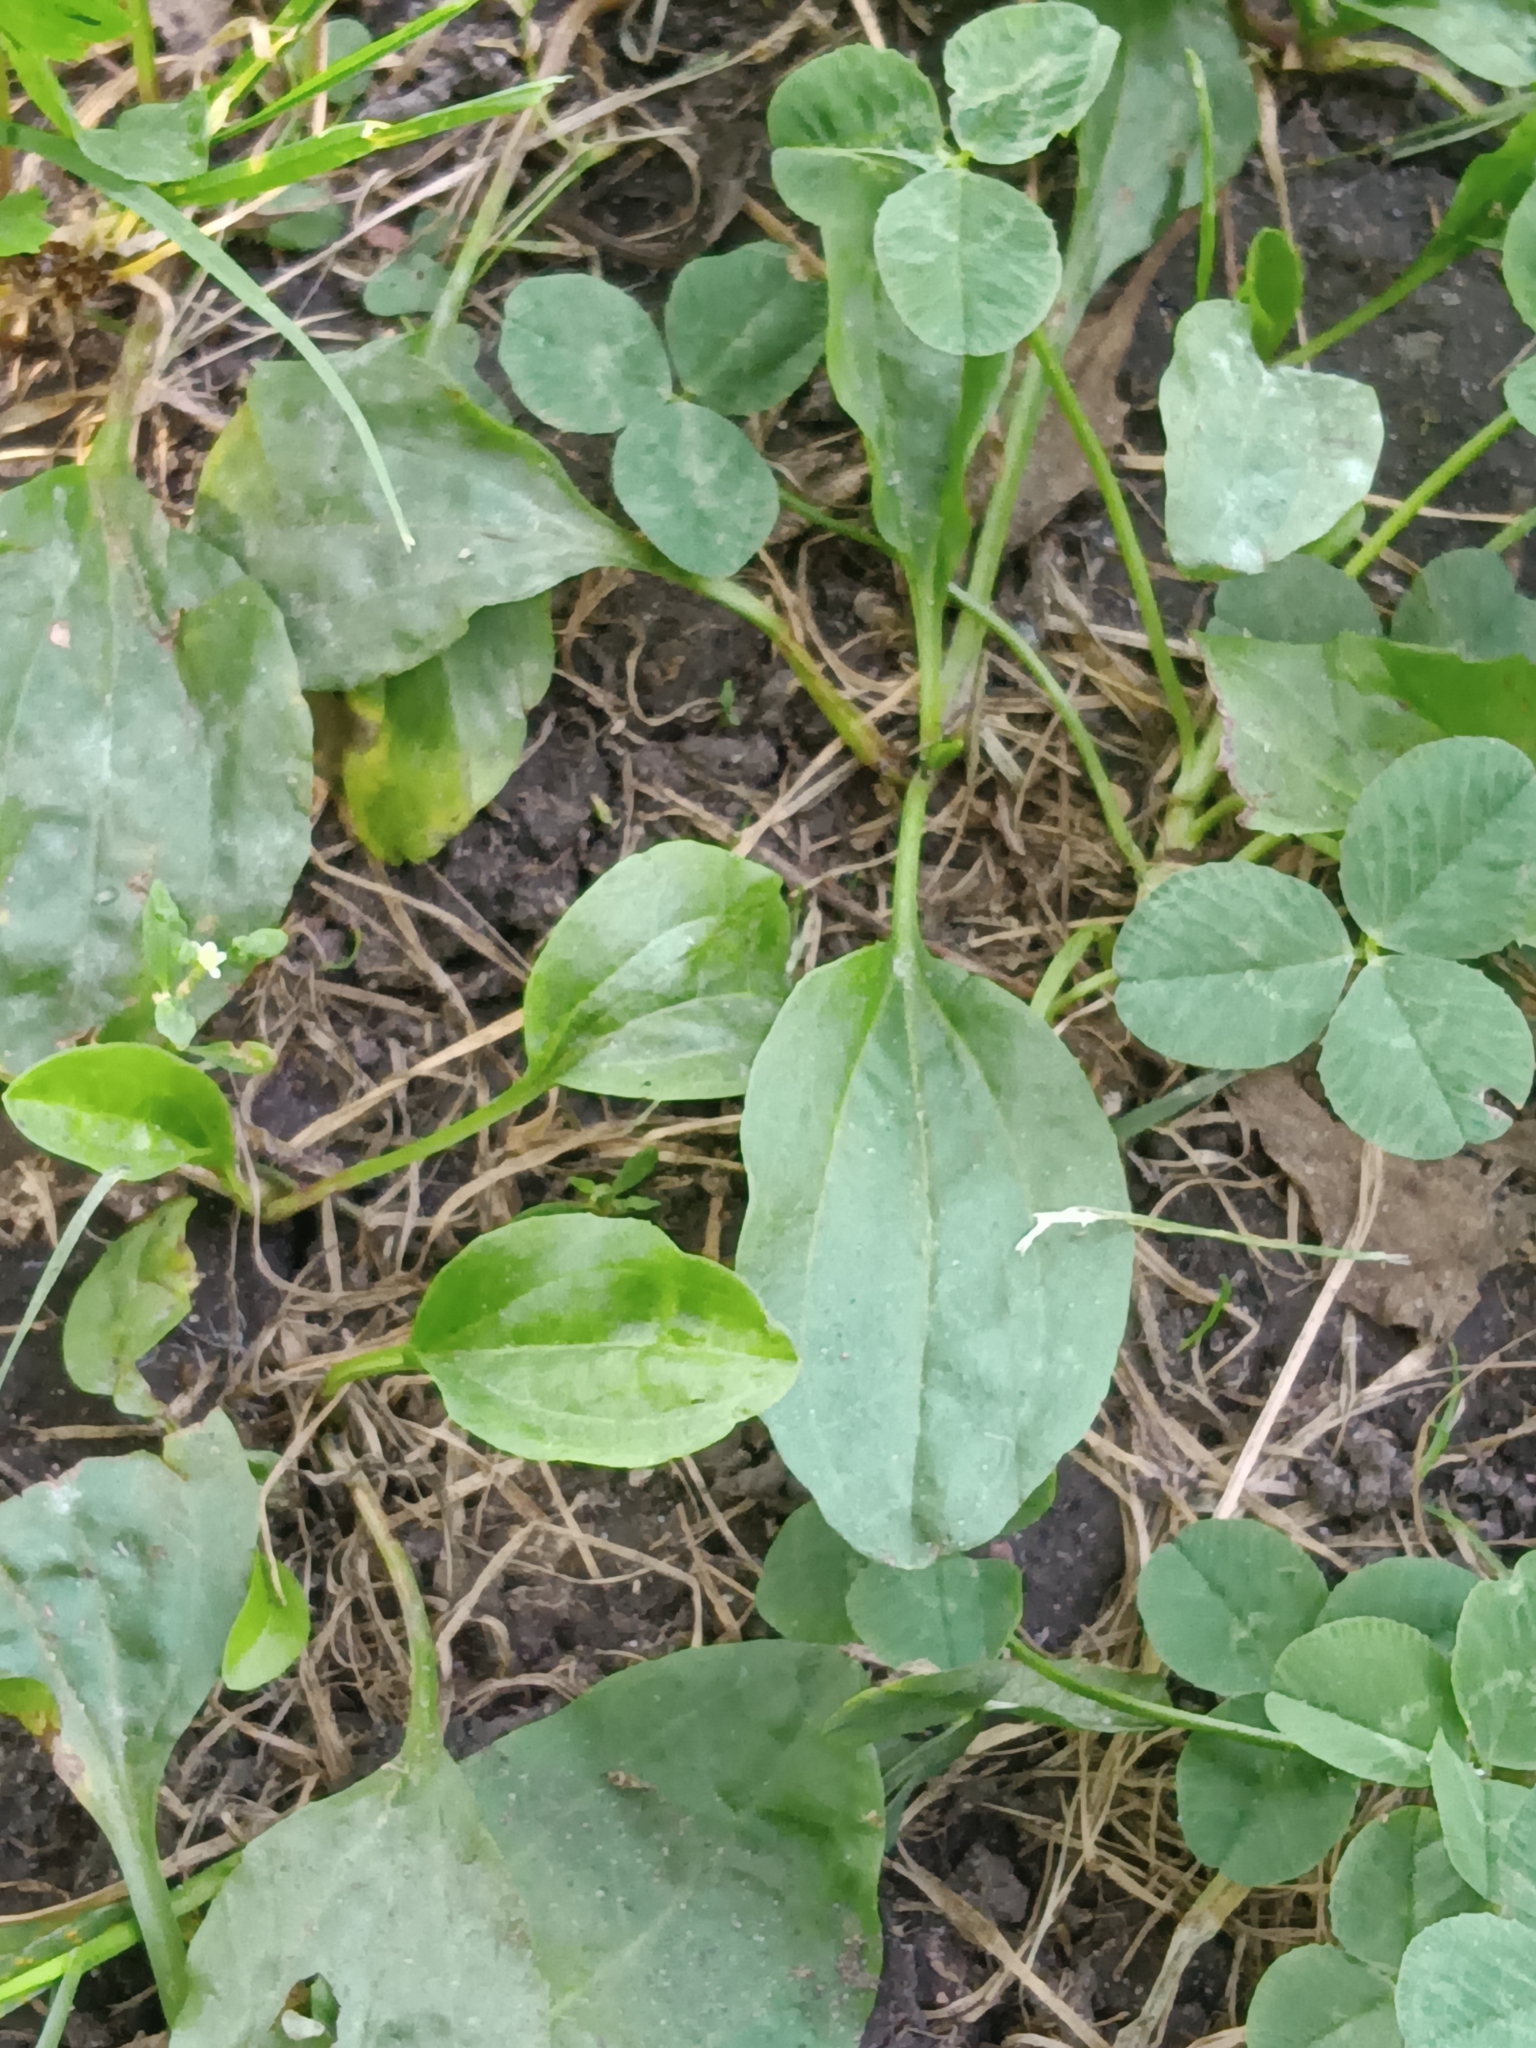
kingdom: Plantae
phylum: Tracheophyta
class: Magnoliopsida
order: Lamiales
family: Plantaginaceae
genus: Plantago
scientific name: Plantago major
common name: Common plantain
